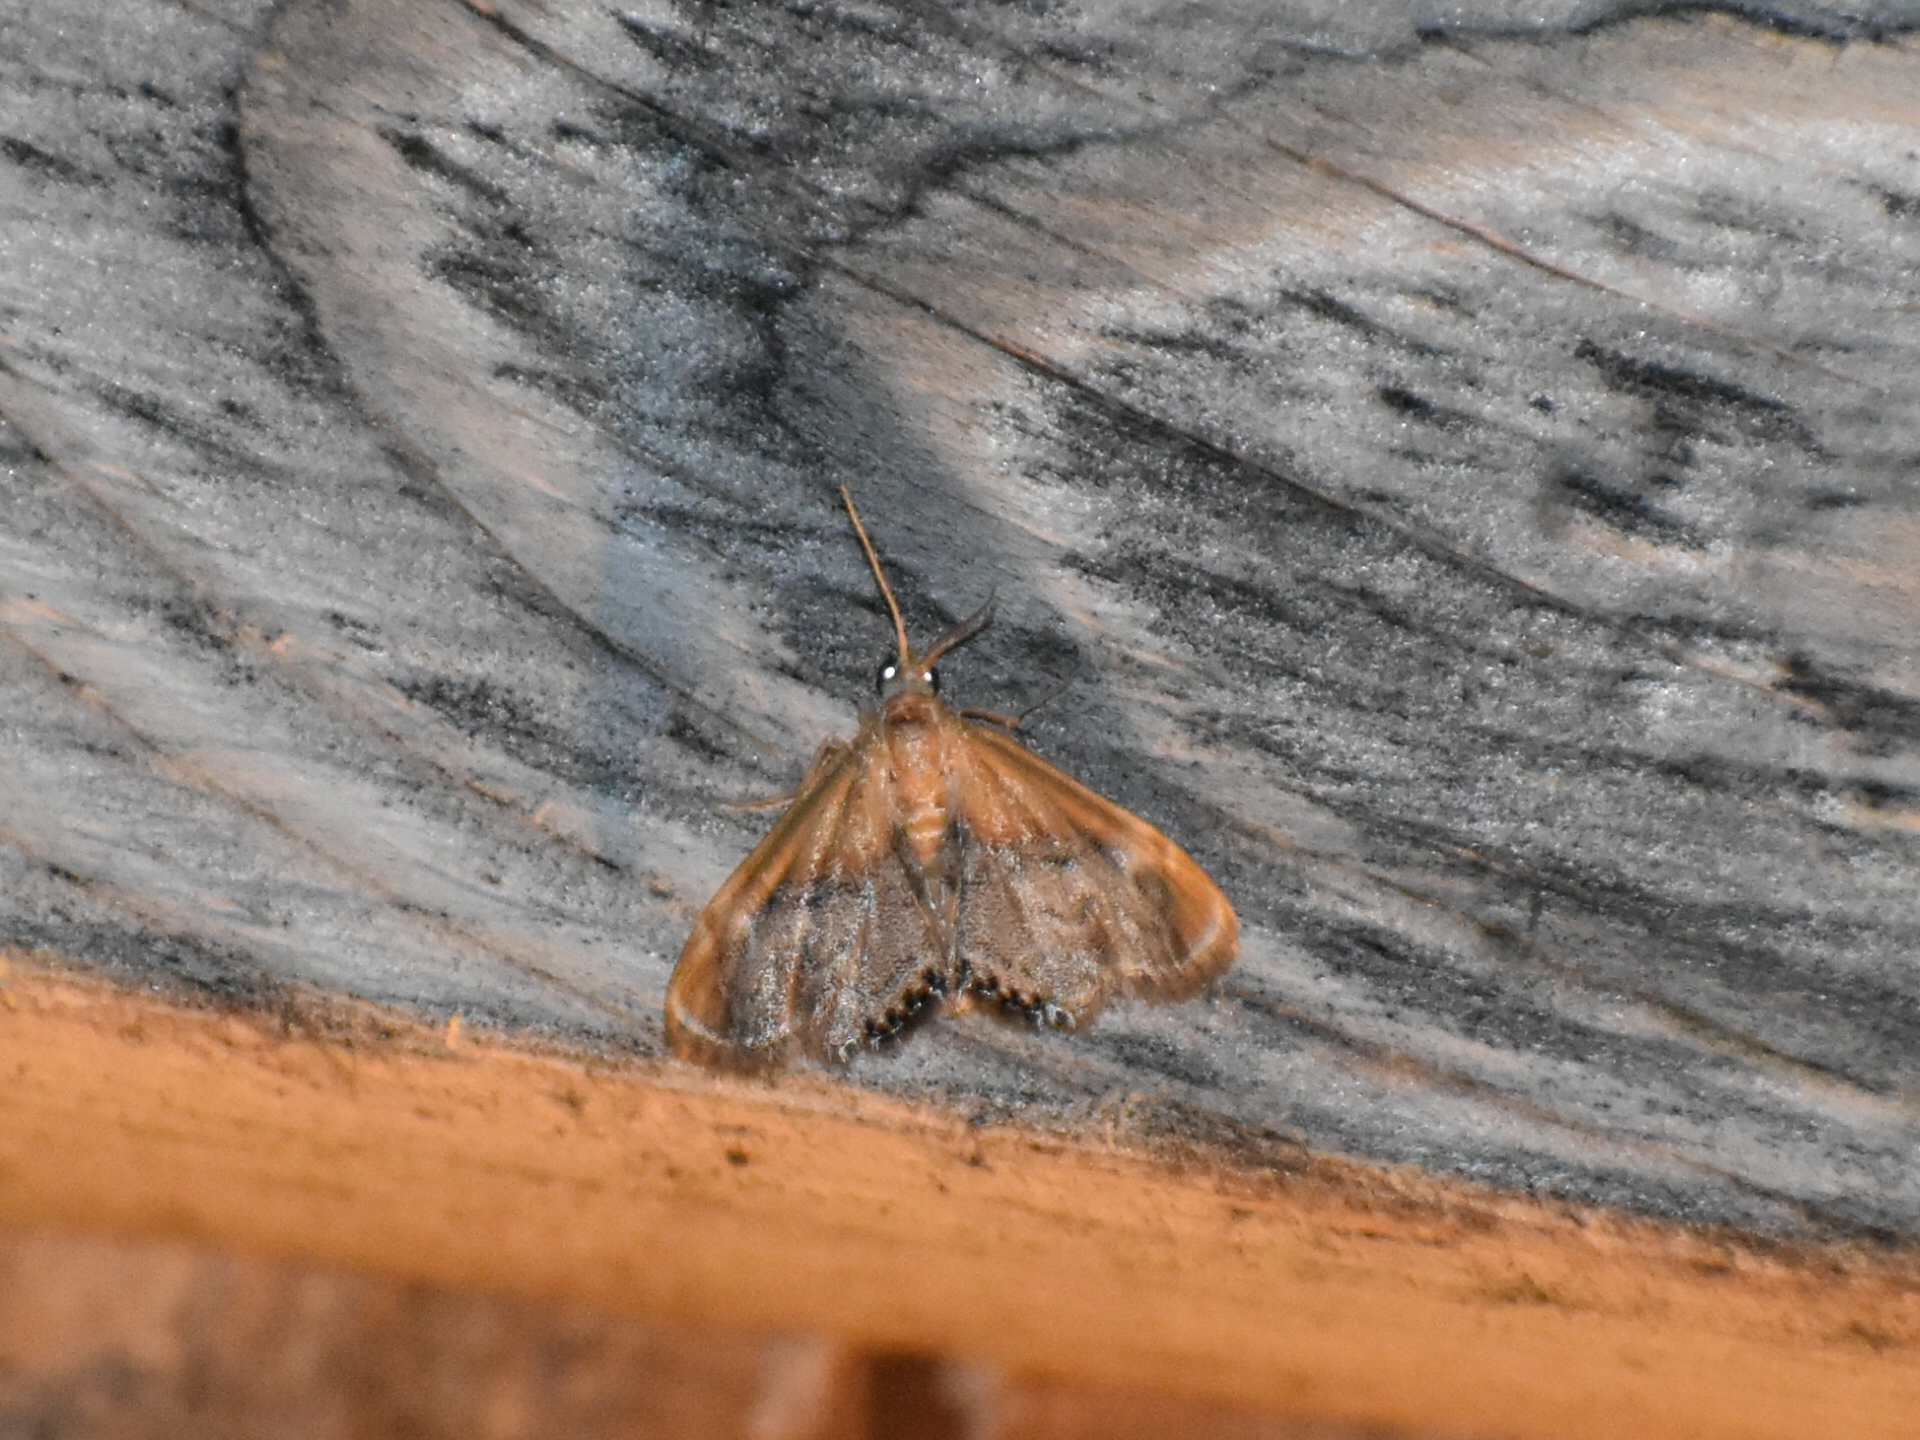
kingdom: Animalia
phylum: Arthropoda
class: Insecta
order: Lepidoptera
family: Crambidae
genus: Chalcoela
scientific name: Chalcoela iphitalis
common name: Sooty-winged chalcoela moth
